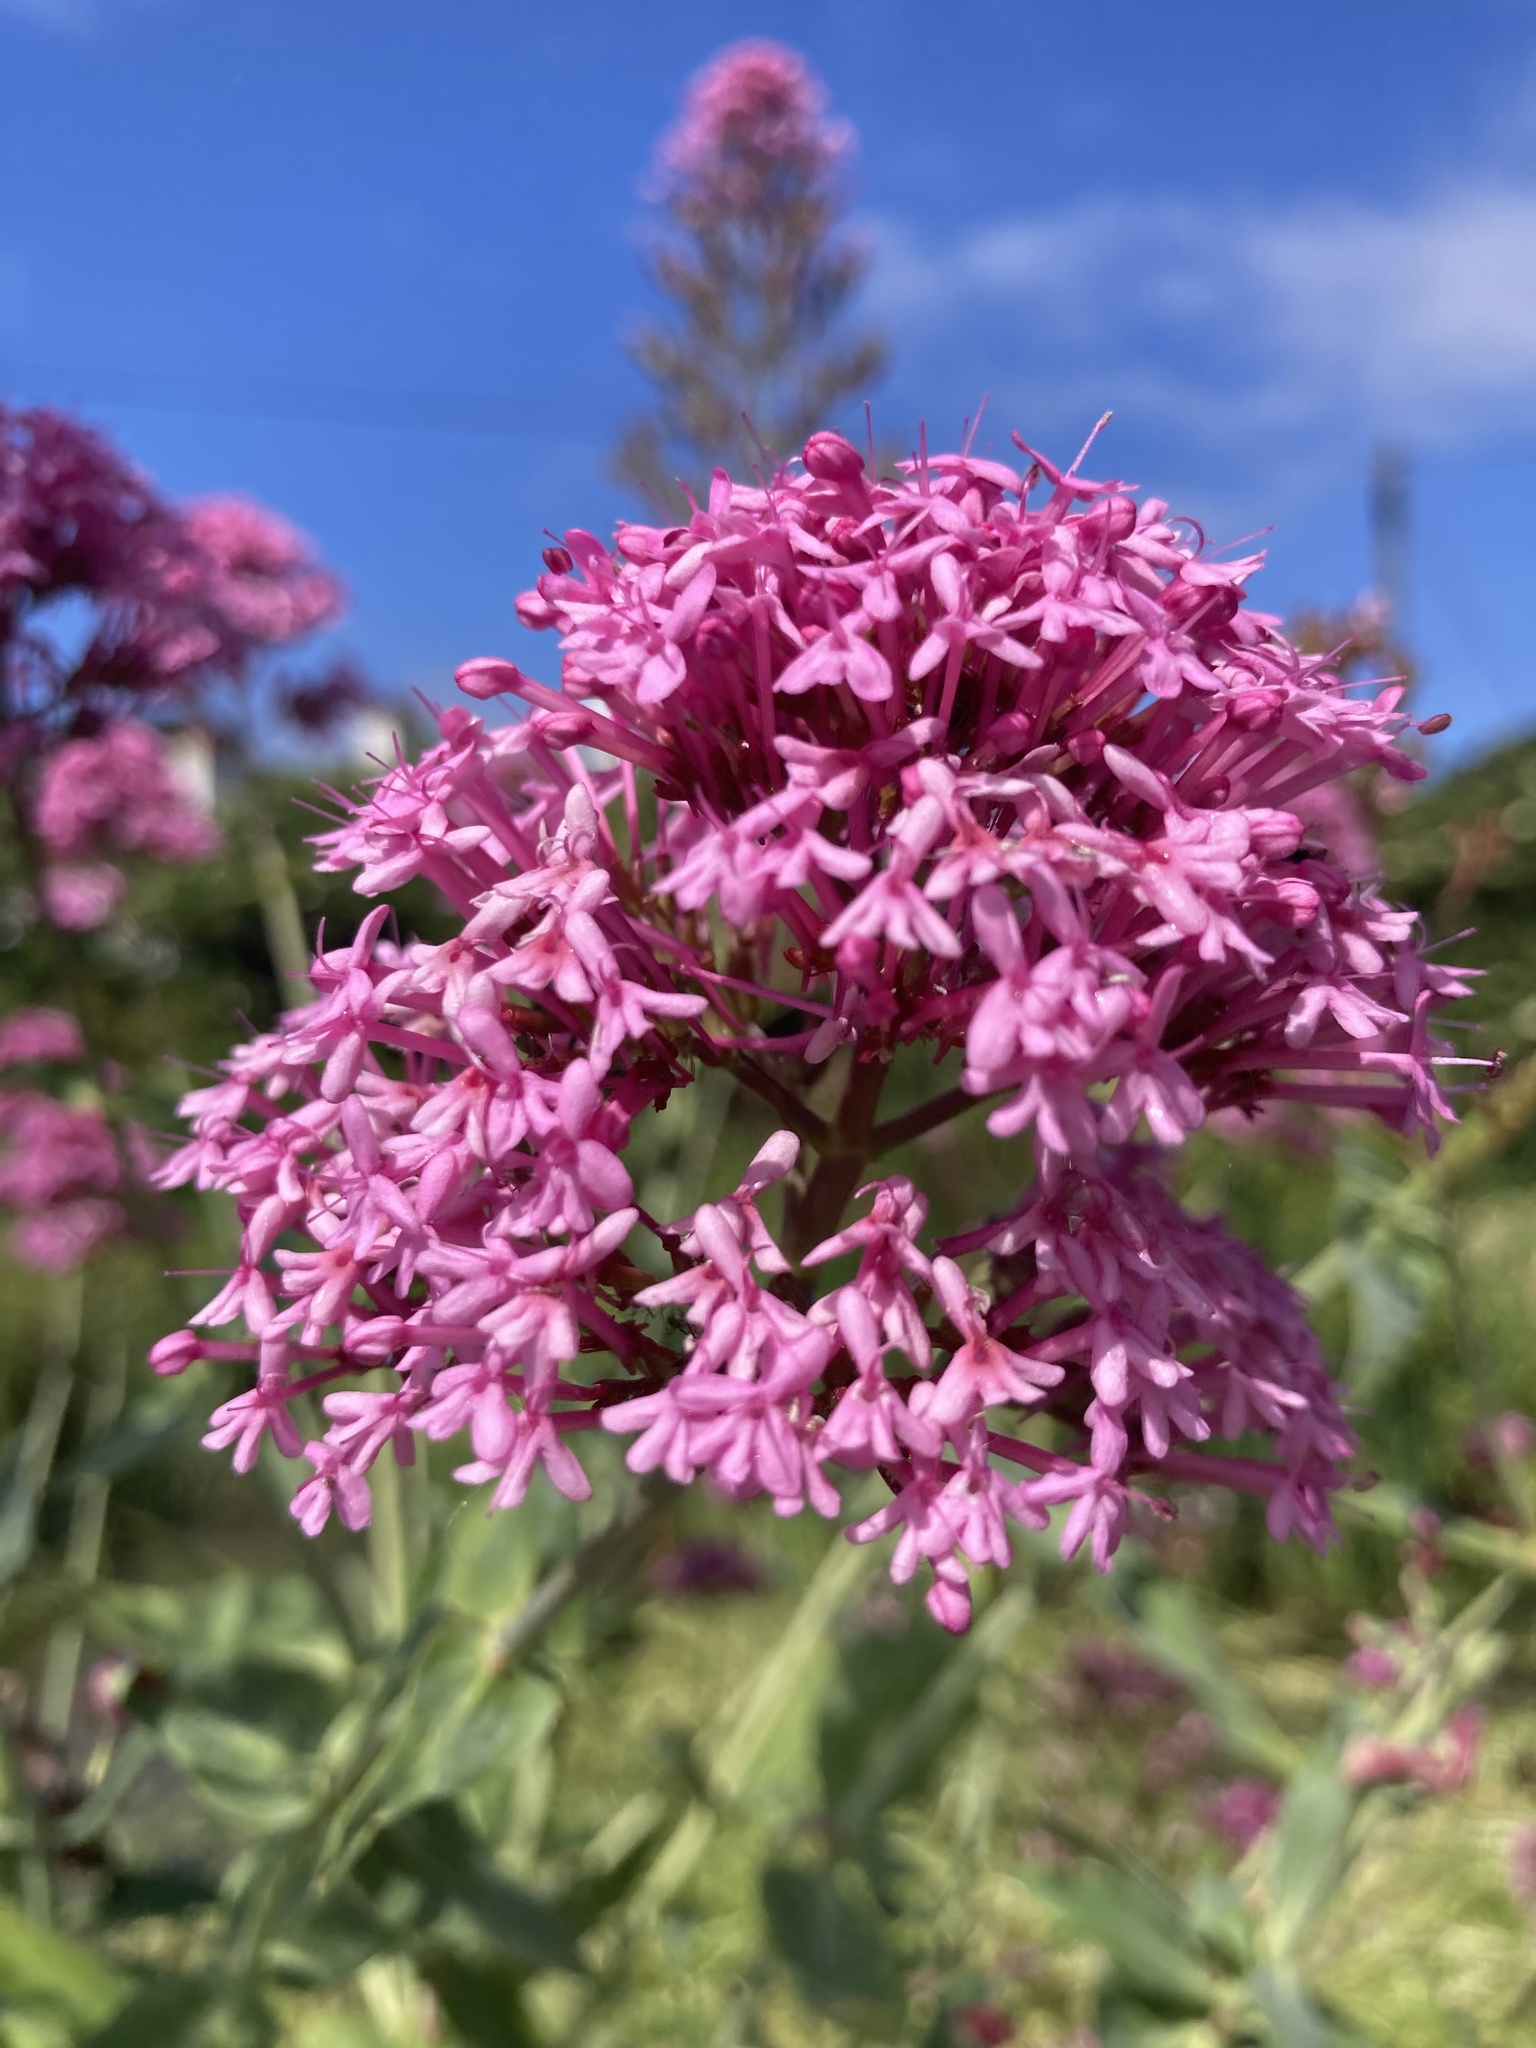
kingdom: Plantae
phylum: Tracheophyta
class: Magnoliopsida
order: Dipsacales
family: Caprifoliaceae
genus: Centranthus
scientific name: Centranthus ruber
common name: Red valerian
